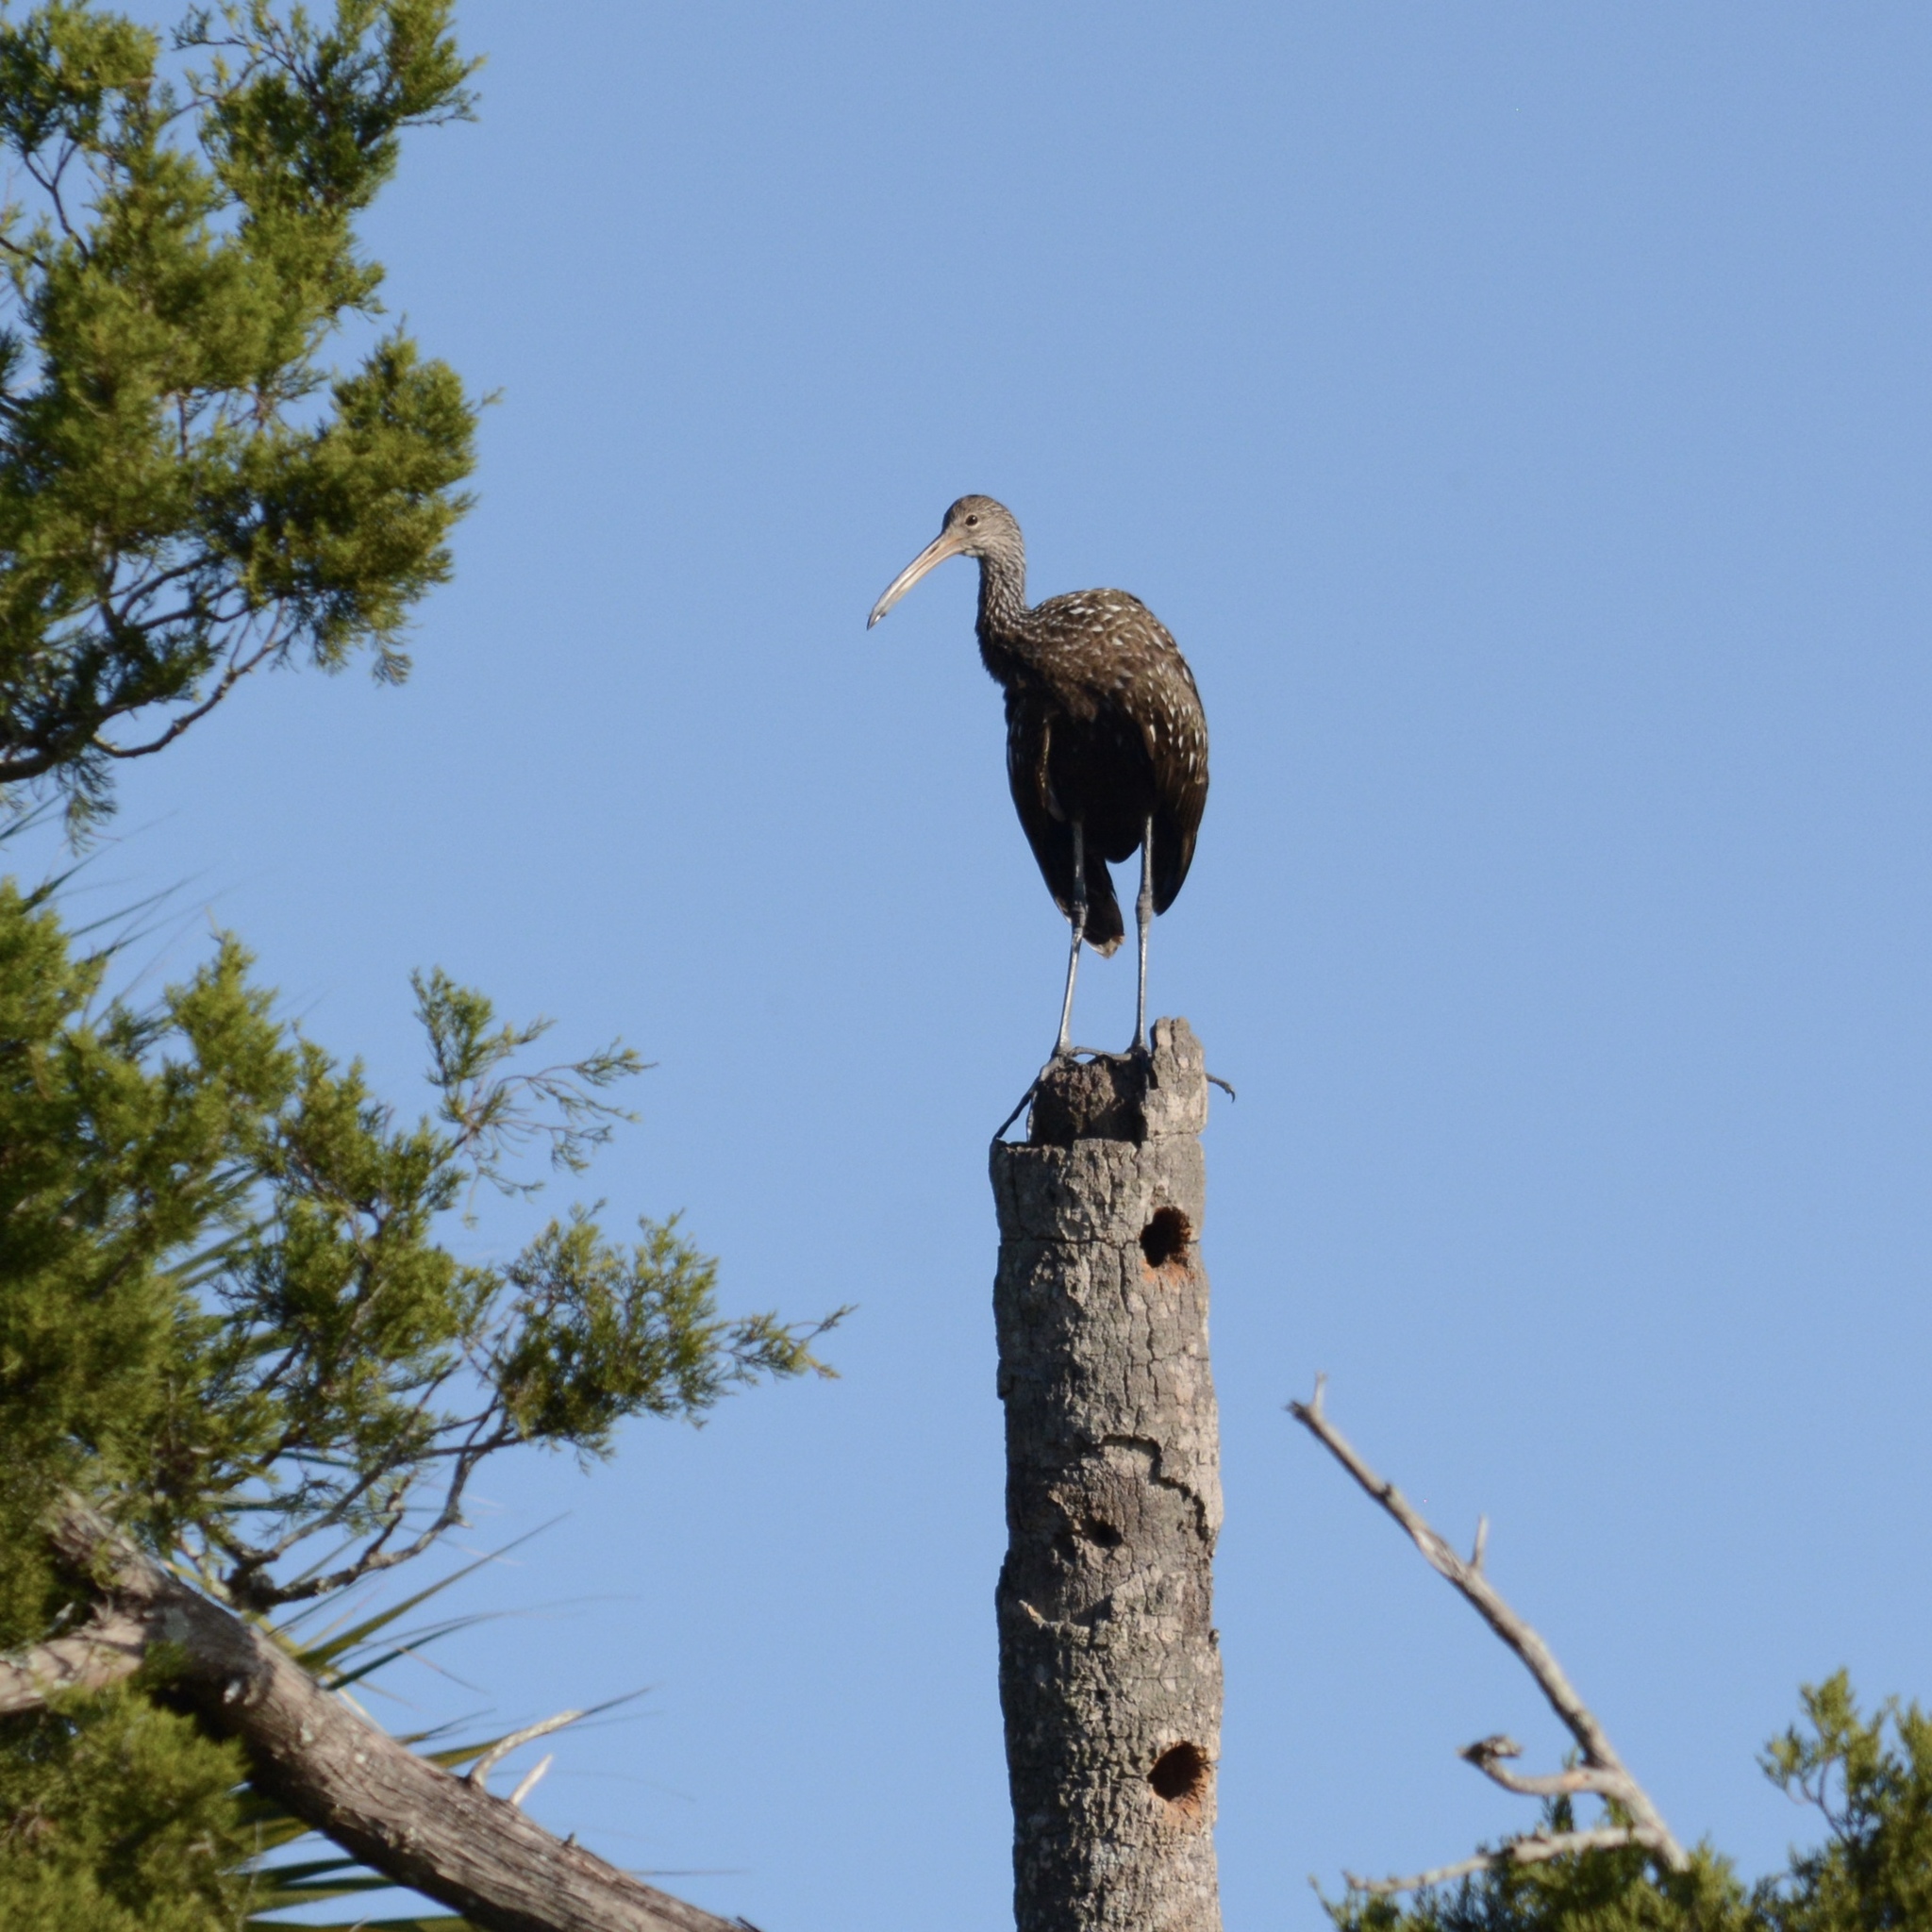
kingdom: Animalia
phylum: Chordata
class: Aves
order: Gruiformes
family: Aramidae
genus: Aramus
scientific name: Aramus guarauna
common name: Limpkin
